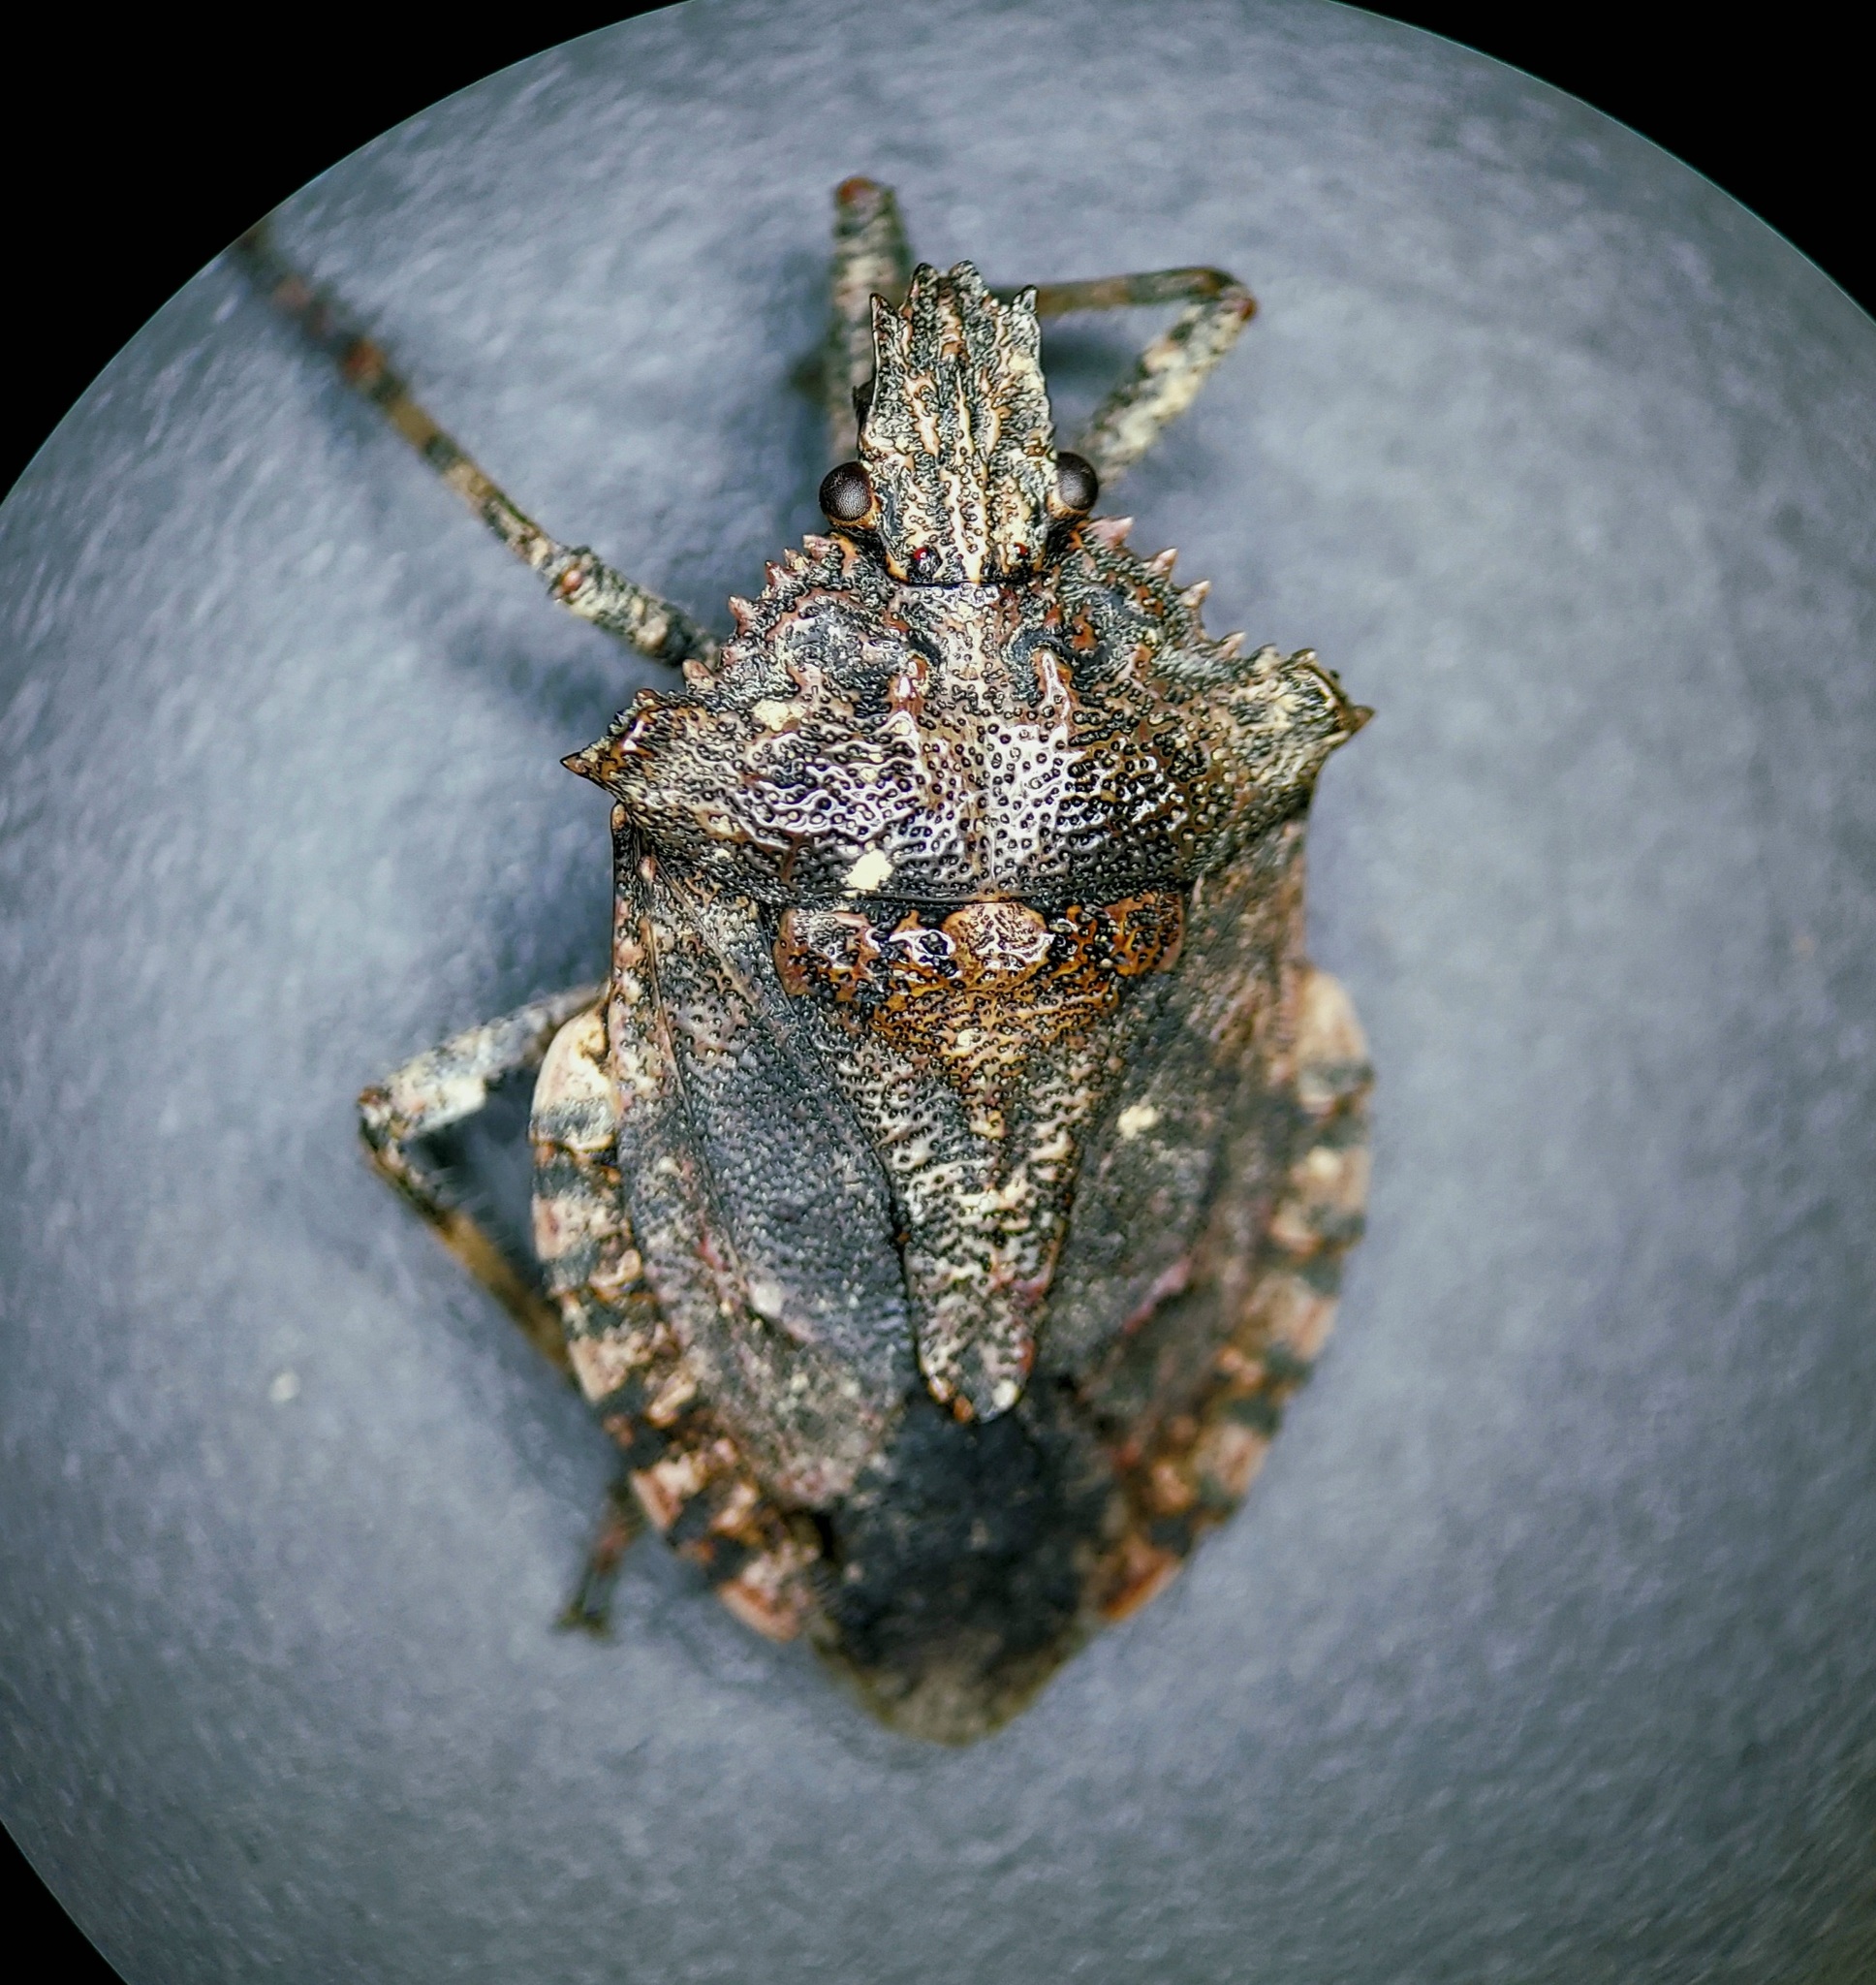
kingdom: Animalia
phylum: Arthropoda
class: Insecta
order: Hemiptera
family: Pentatomidae
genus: Brochymena
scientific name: Brochymena arborea
